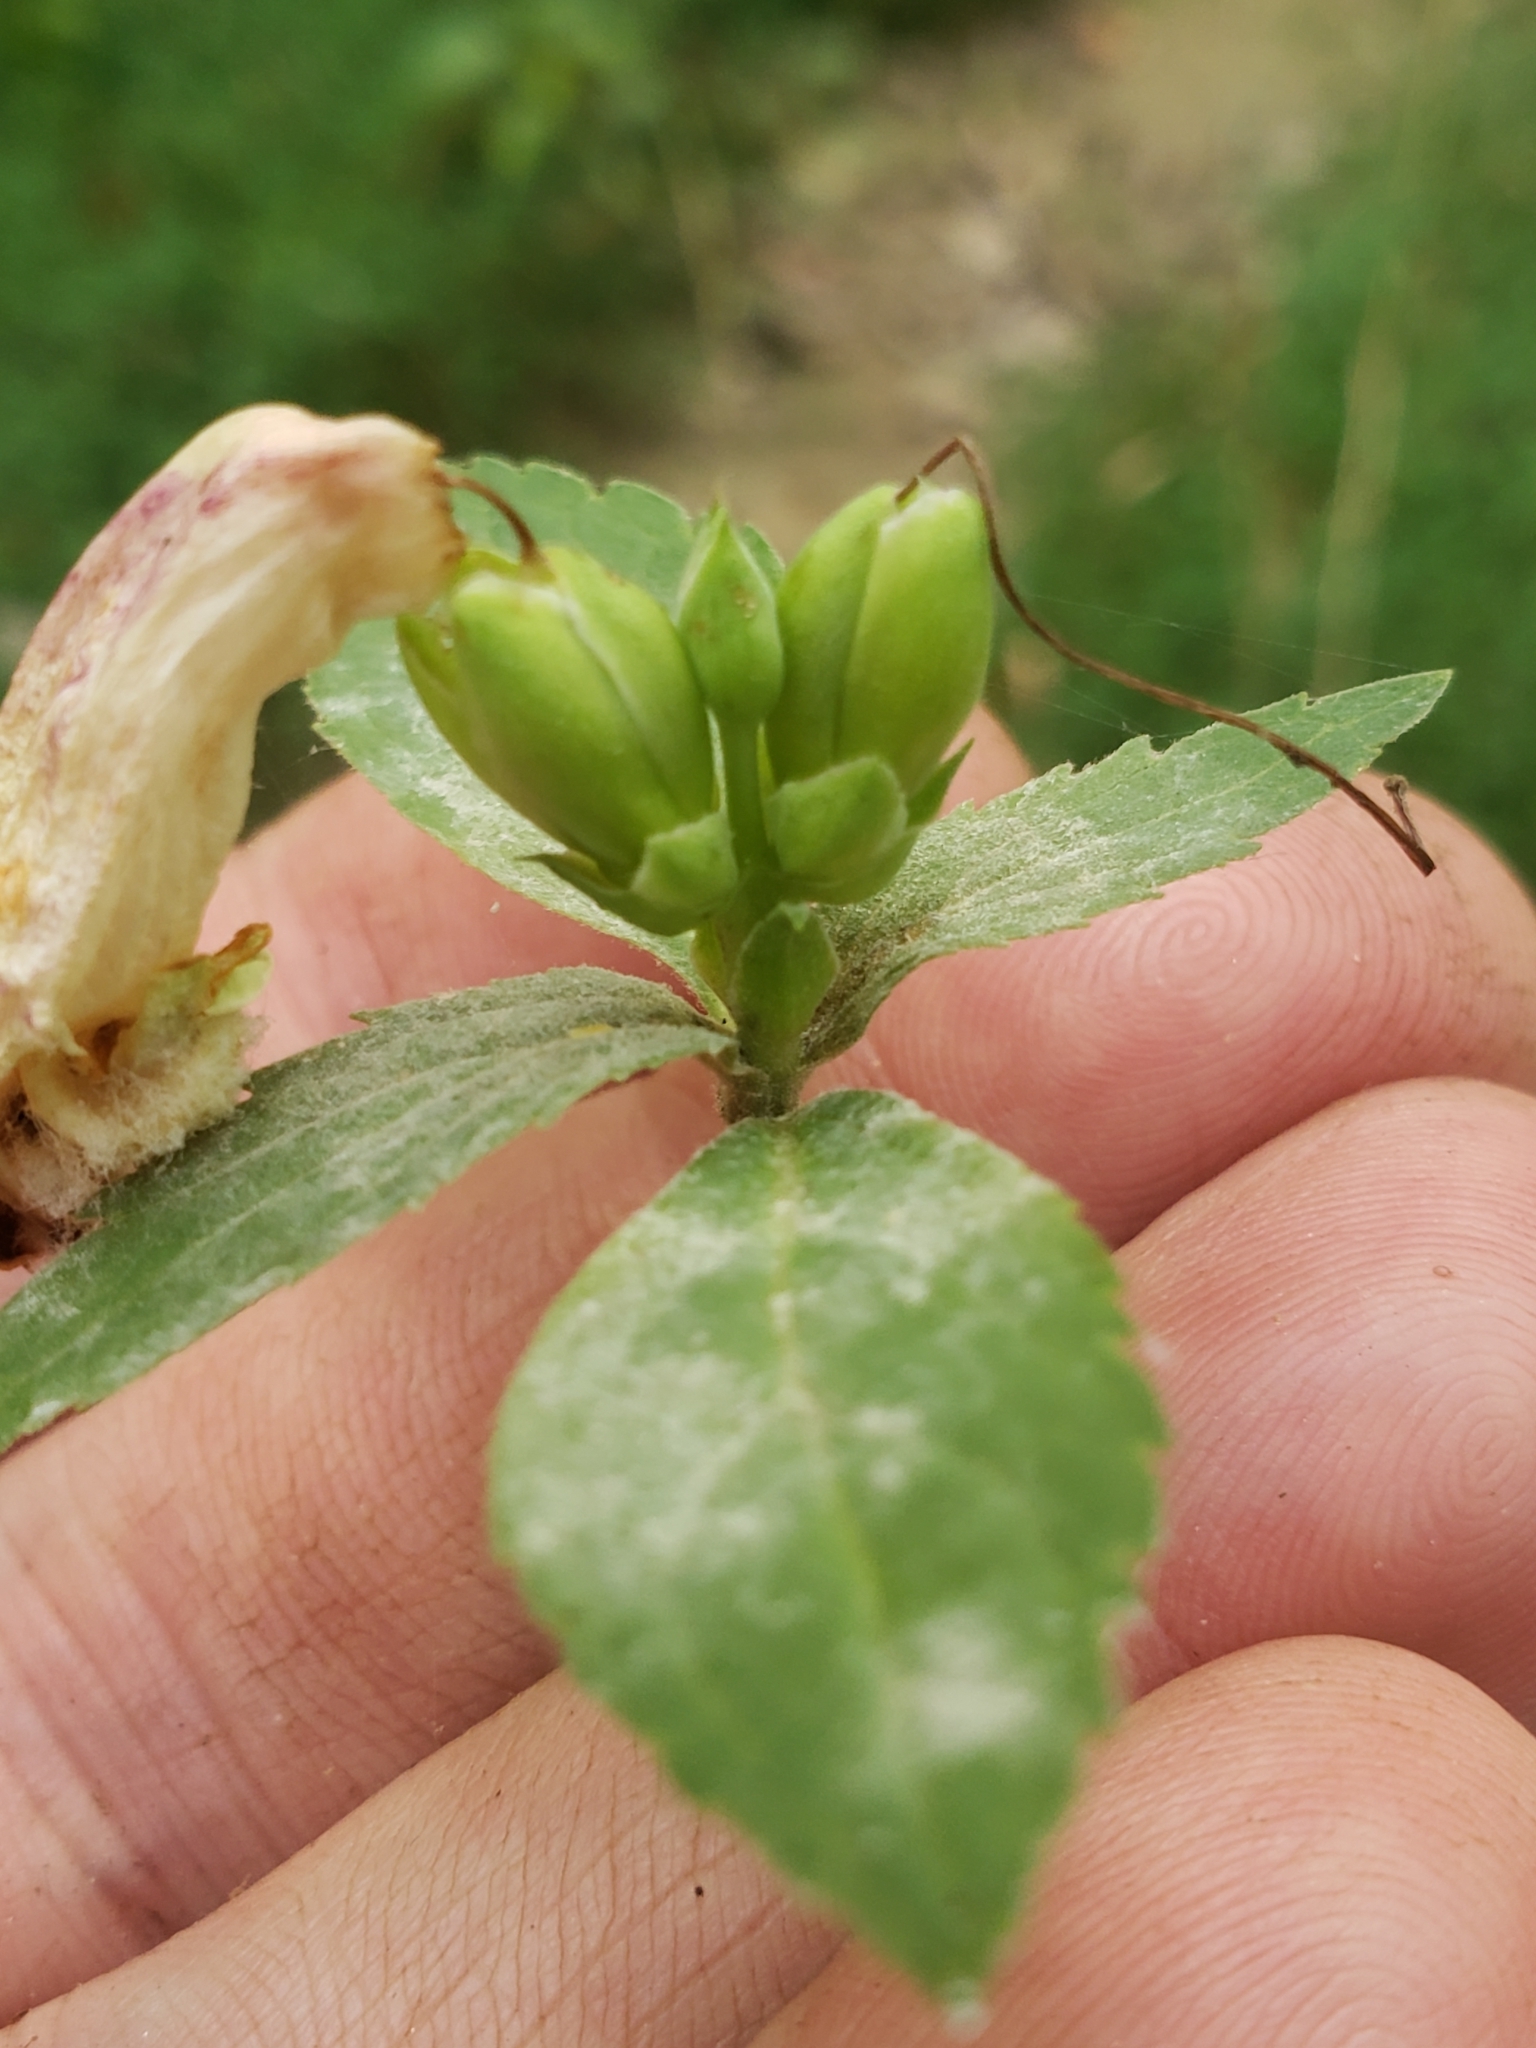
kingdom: Fungi
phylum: Ascomycota
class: Leotiomycetes
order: Helotiales
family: Erysiphaceae
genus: Neoerysiphe
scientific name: Neoerysiphe chelones
